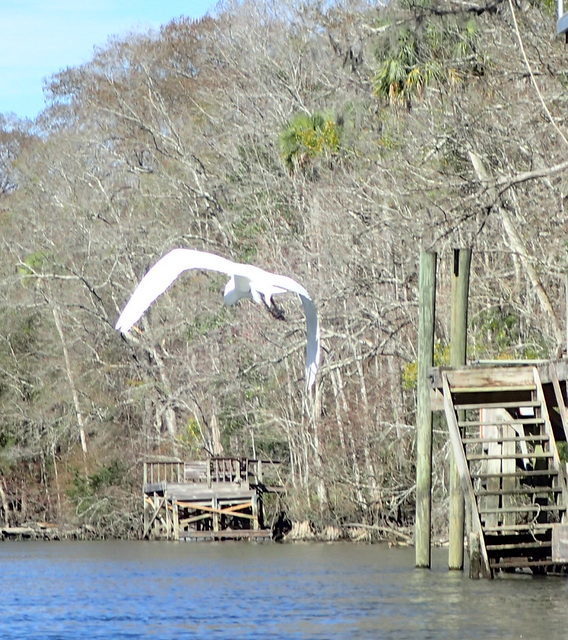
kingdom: Animalia
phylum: Chordata
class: Aves
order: Pelecaniformes
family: Ardeidae
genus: Ardea
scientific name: Ardea alba
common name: Great egret
